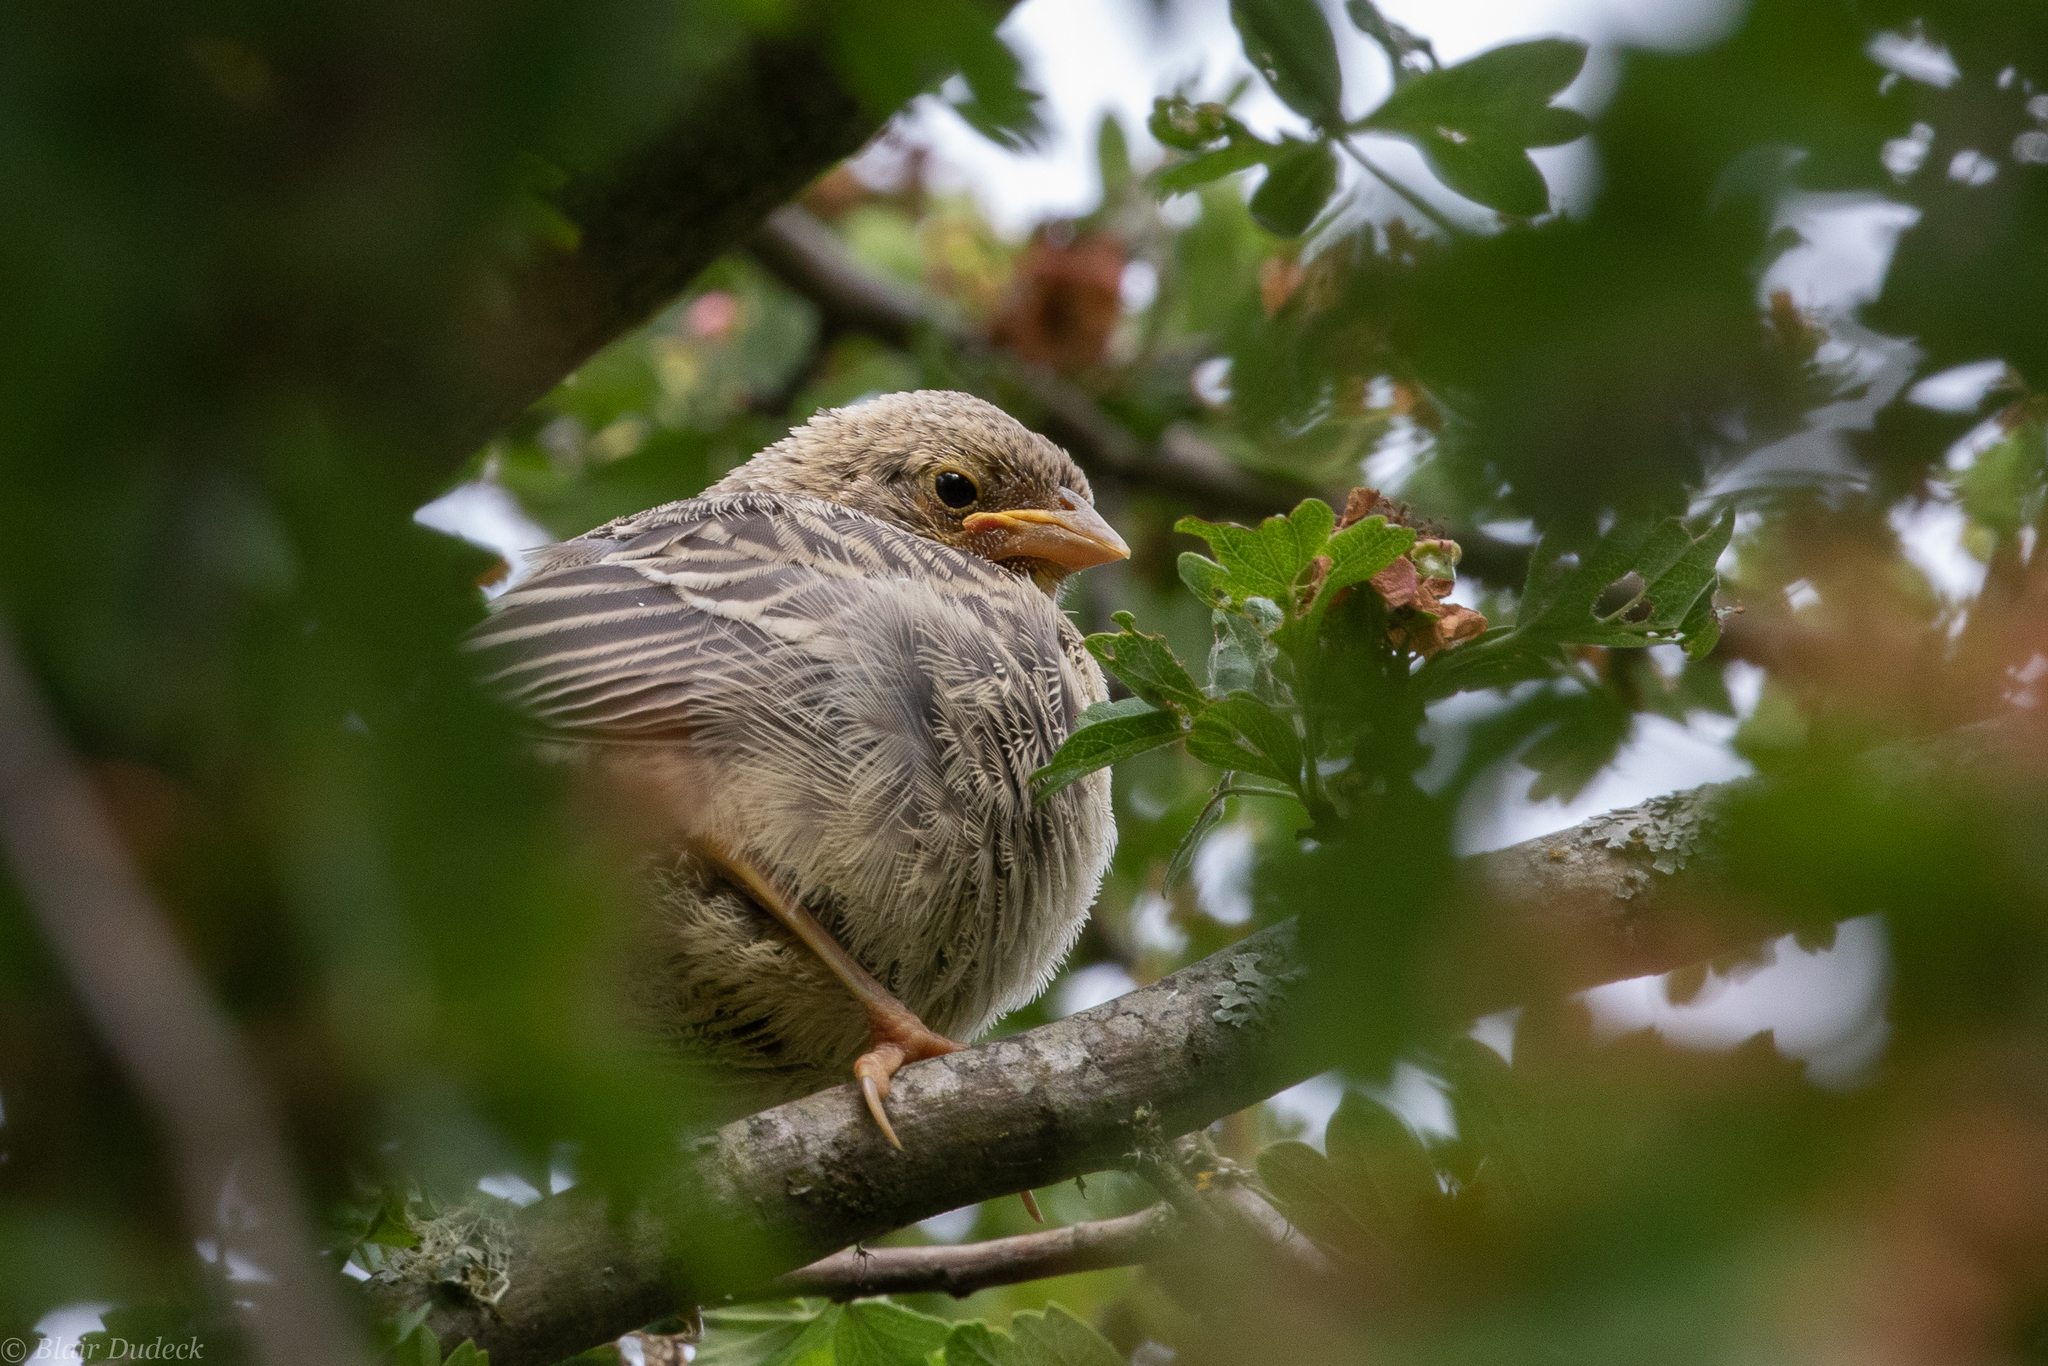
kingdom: Animalia
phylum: Chordata
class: Aves
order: Passeriformes
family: Icteridae
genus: Molothrus
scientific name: Molothrus ater
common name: Brown-headed cowbird
